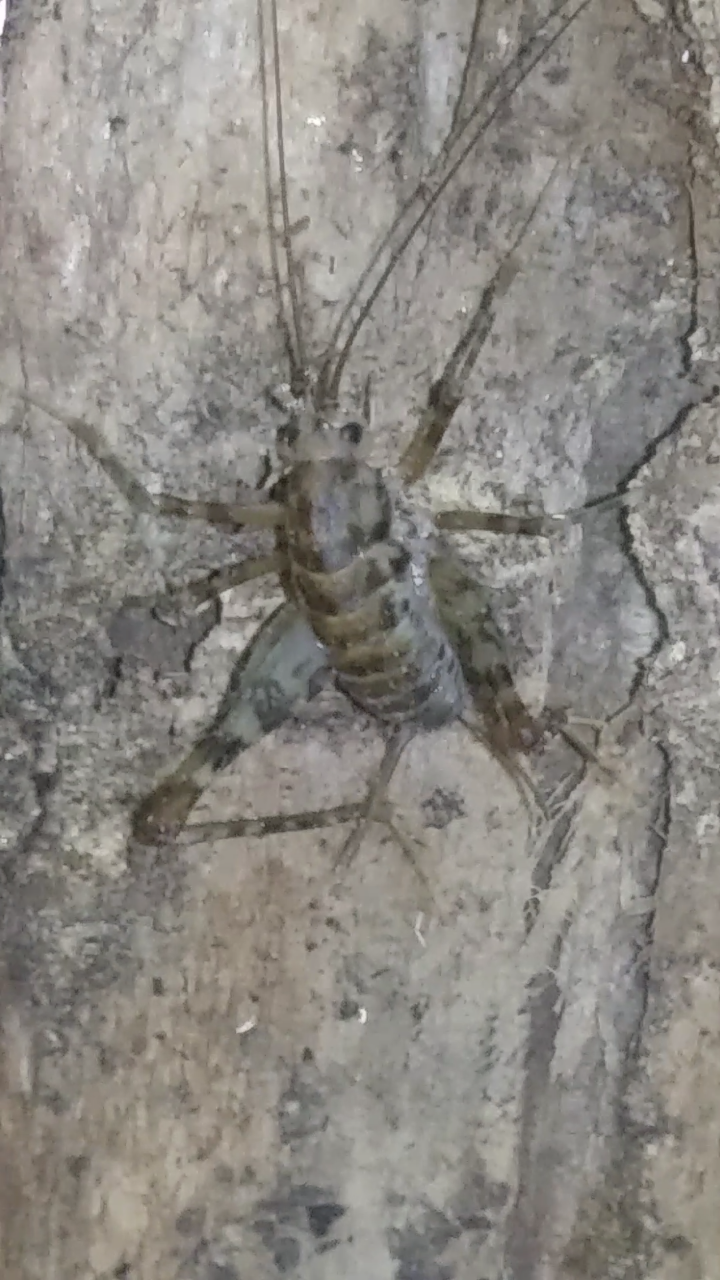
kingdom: Animalia
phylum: Arthropoda
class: Insecta
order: Orthoptera
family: Rhaphidophoridae
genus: Tachycines
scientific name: Tachycines asynamorus
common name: Greenhouse camel cricket
